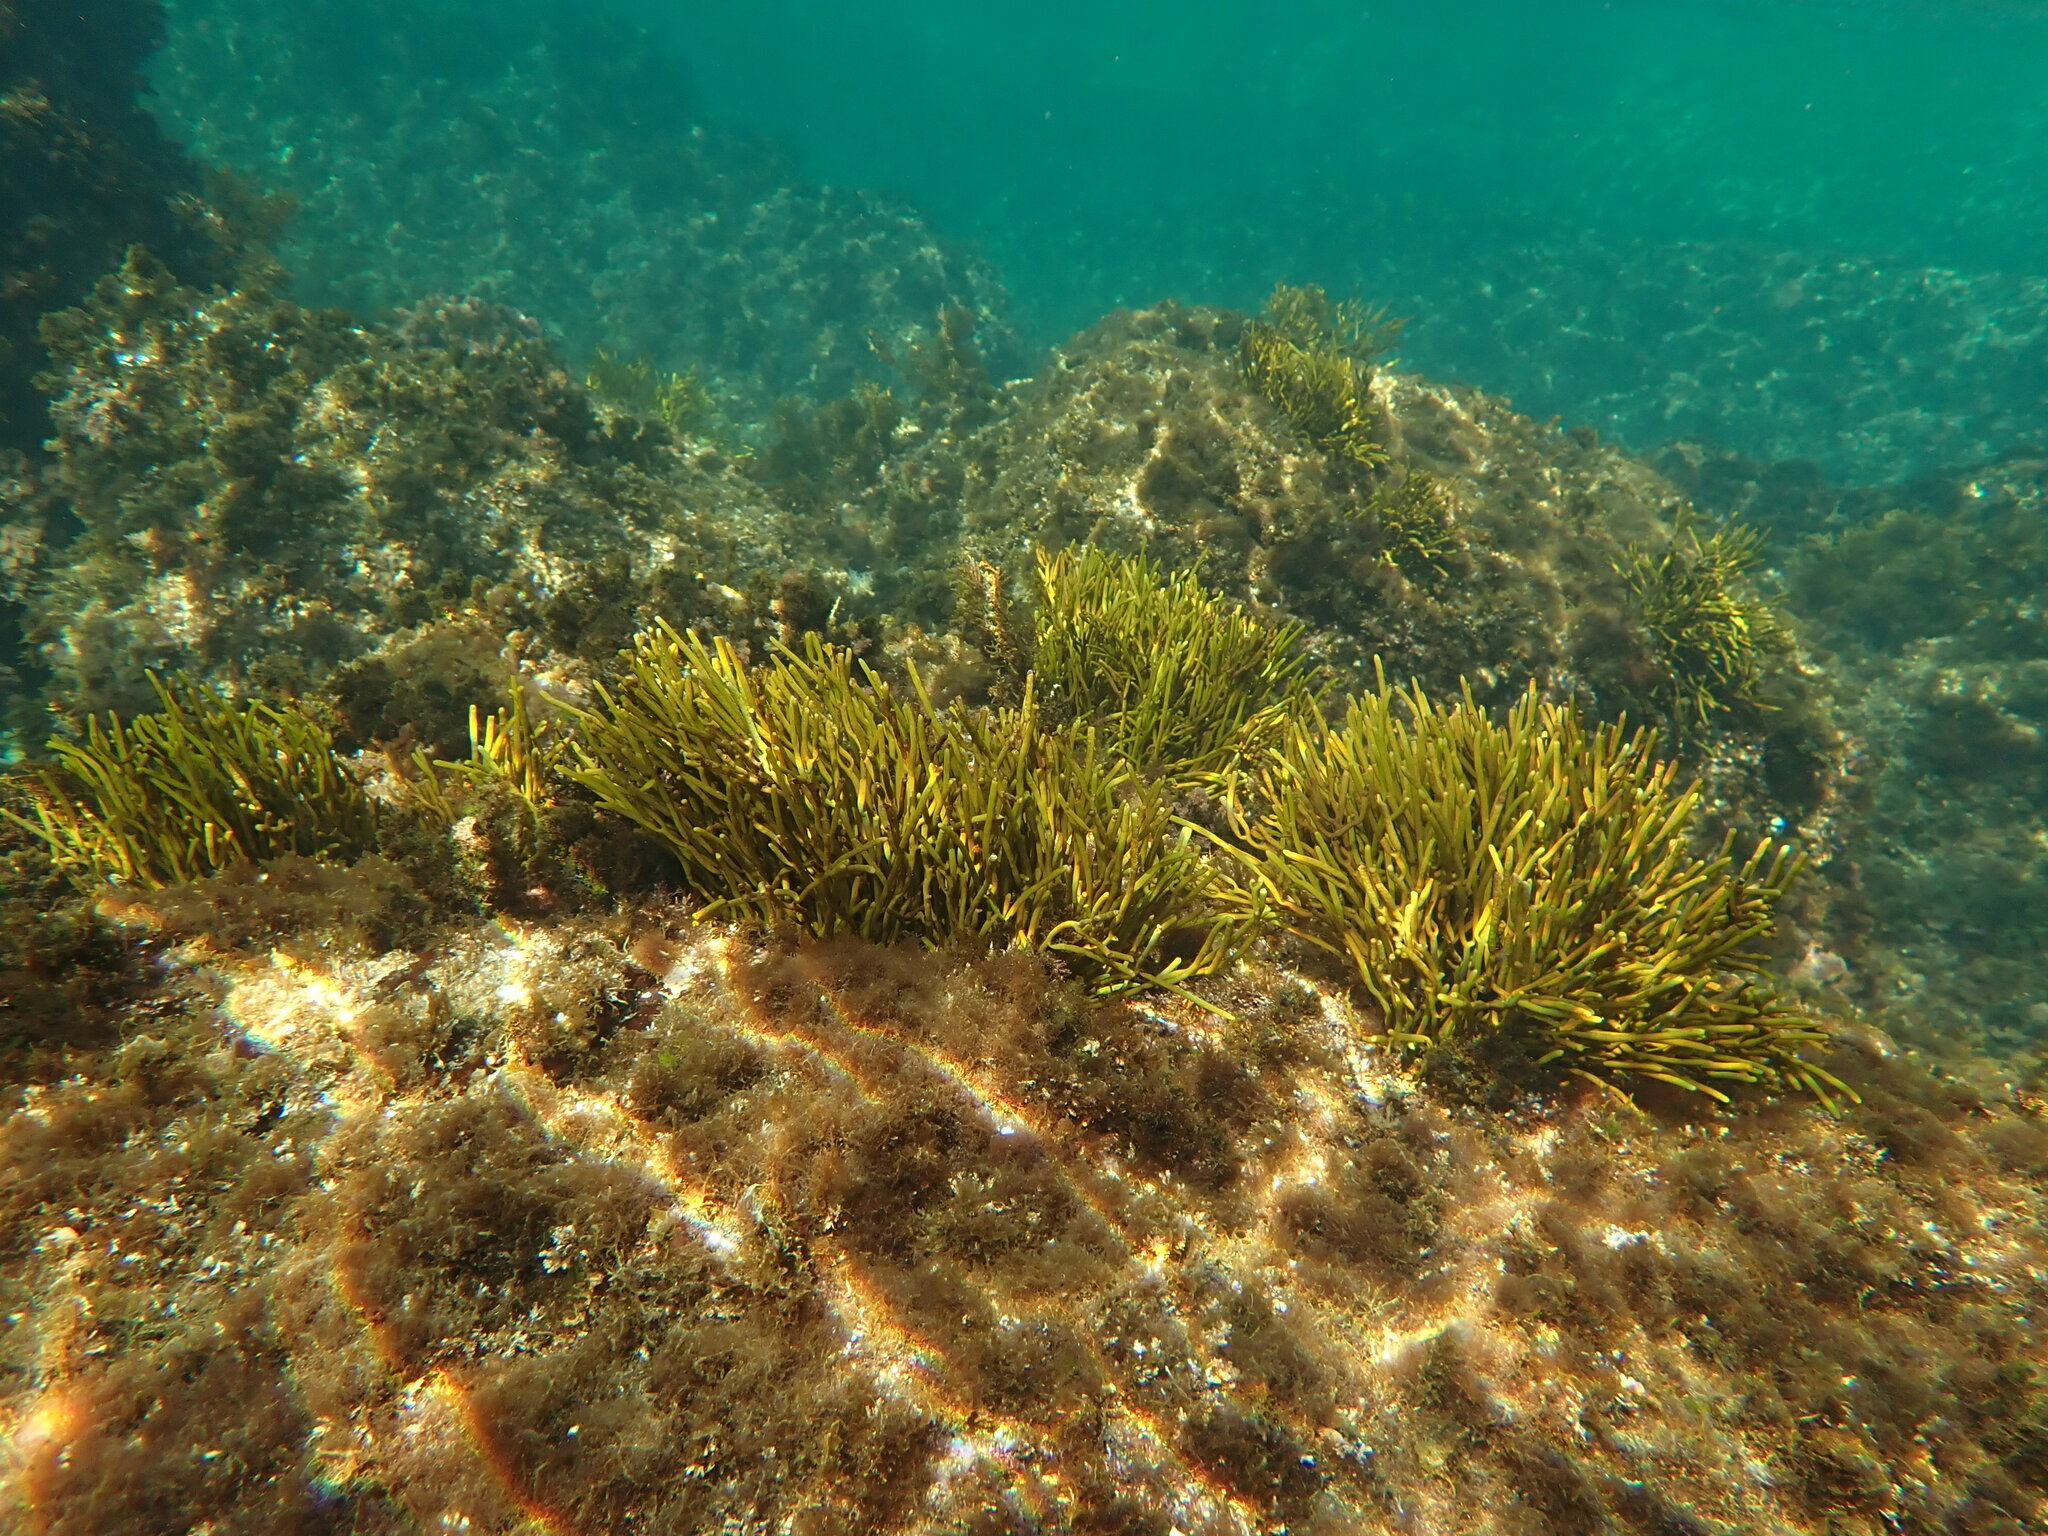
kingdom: Chromista
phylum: Ochrophyta
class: Phaeophyceae
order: Fucales
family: Sargassaceae
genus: Bifurcaria
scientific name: Bifurcaria bifurcata
